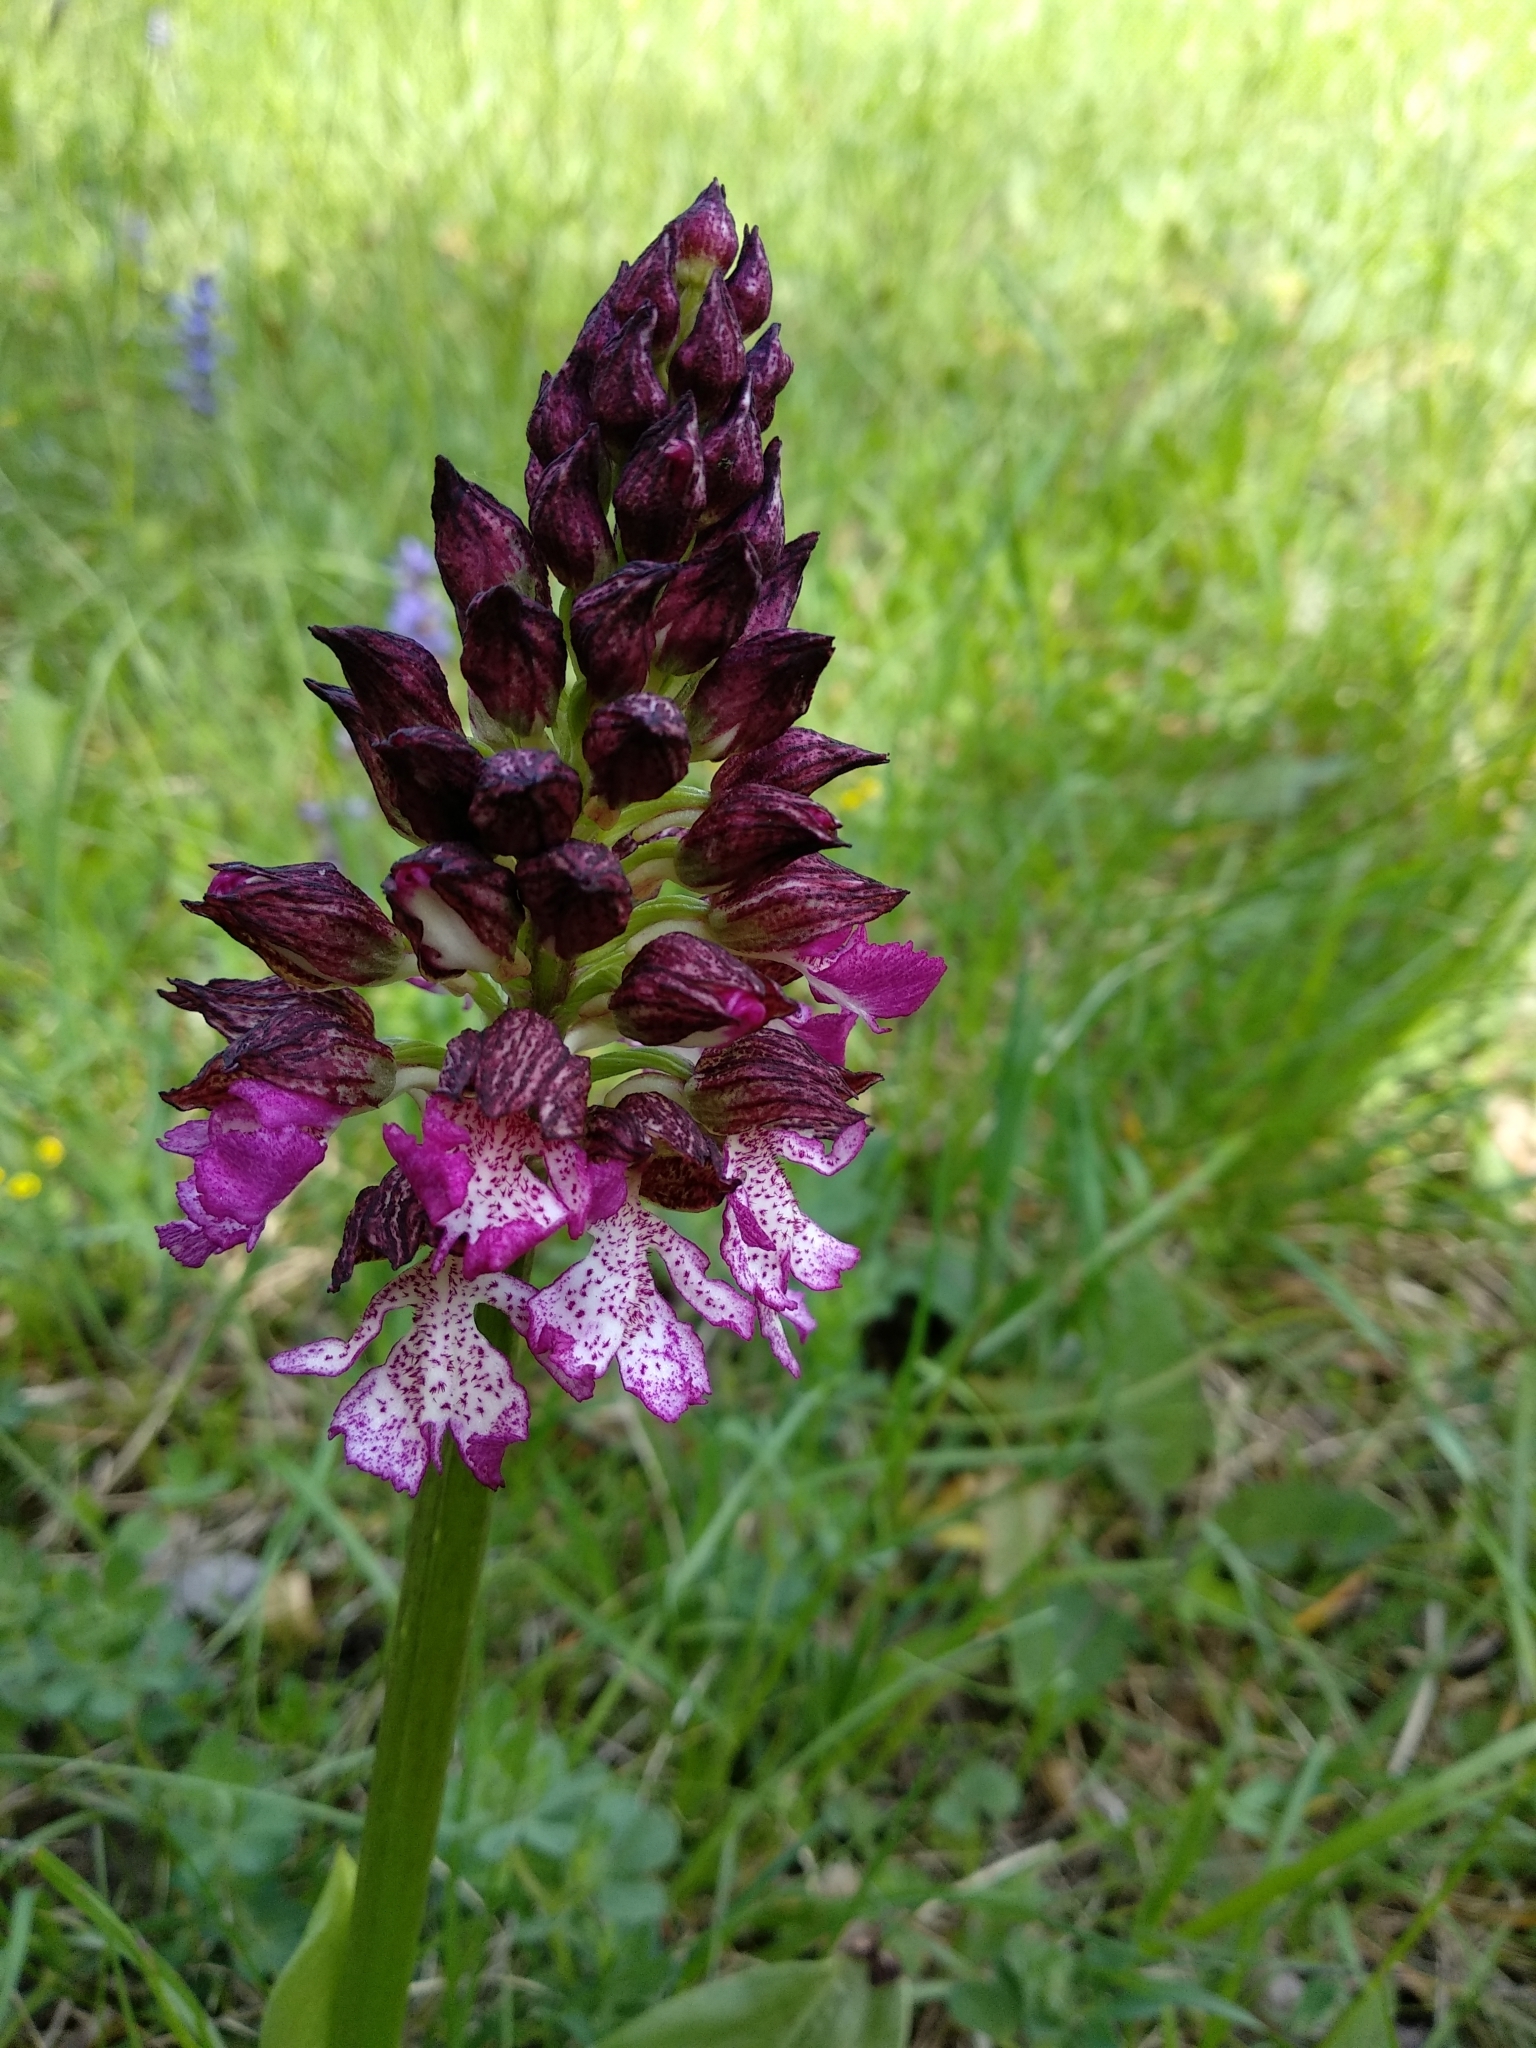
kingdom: Plantae
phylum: Tracheophyta
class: Liliopsida
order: Asparagales
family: Orchidaceae
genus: Orchis
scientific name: Orchis purpurea
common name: Lady orchid
